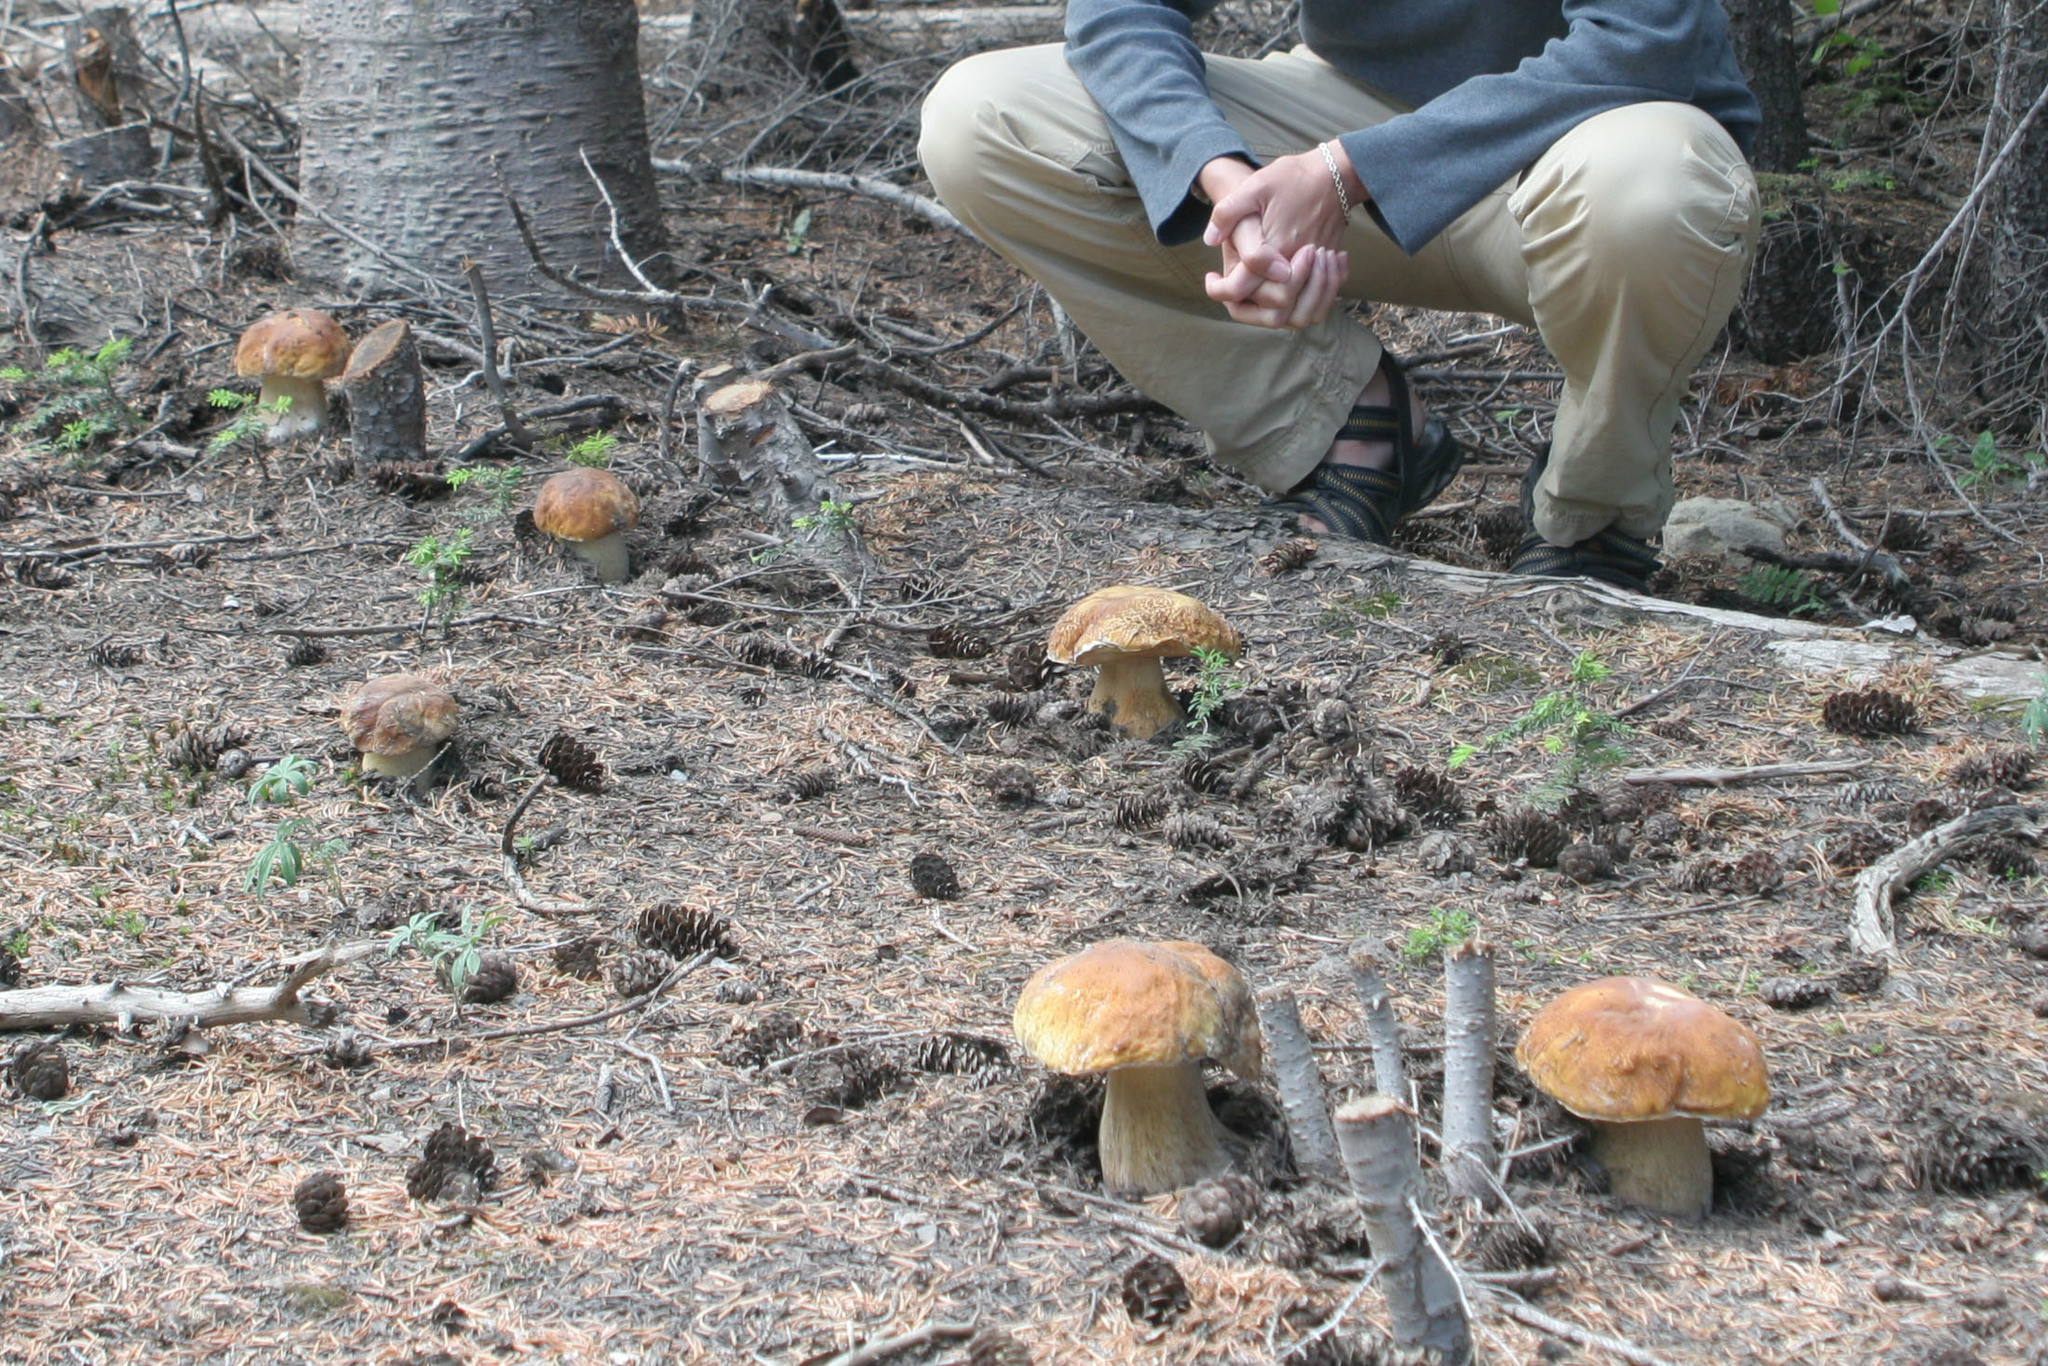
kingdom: Fungi
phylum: Basidiomycota
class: Agaricomycetes
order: Boletales
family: Boletaceae
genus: Boletus
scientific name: Boletus edulis
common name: Cep
